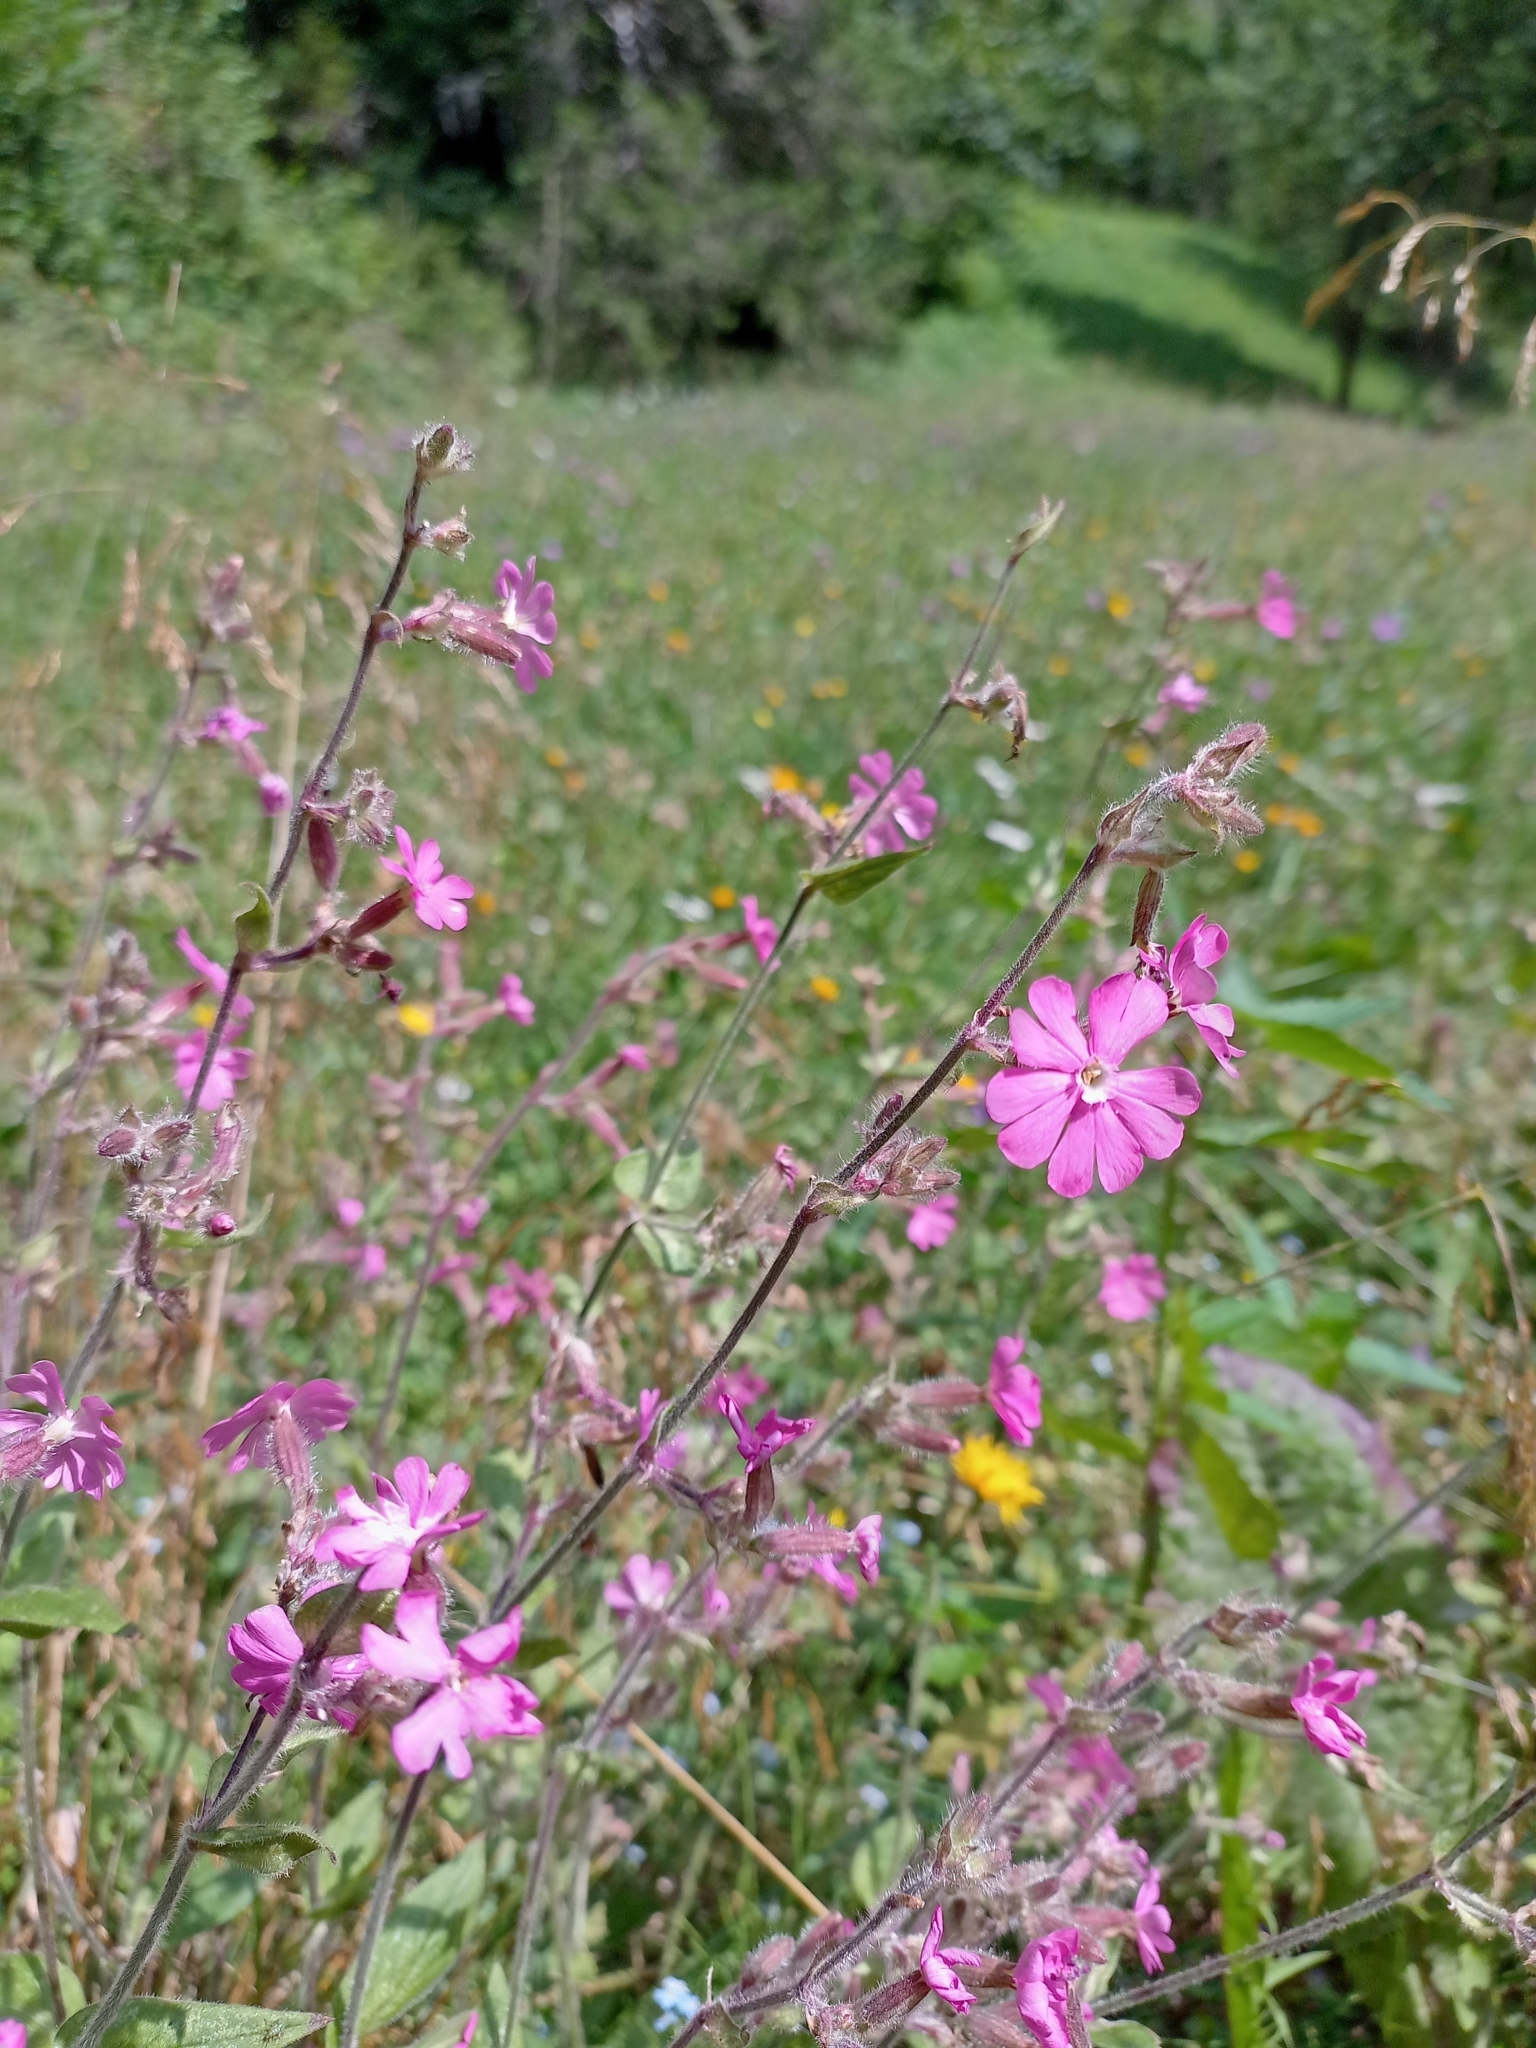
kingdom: Plantae
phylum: Tracheophyta
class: Magnoliopsida
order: Caryophyllales
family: Caryophyllaceae
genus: Silene
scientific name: Silene dioica
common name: Red campion
